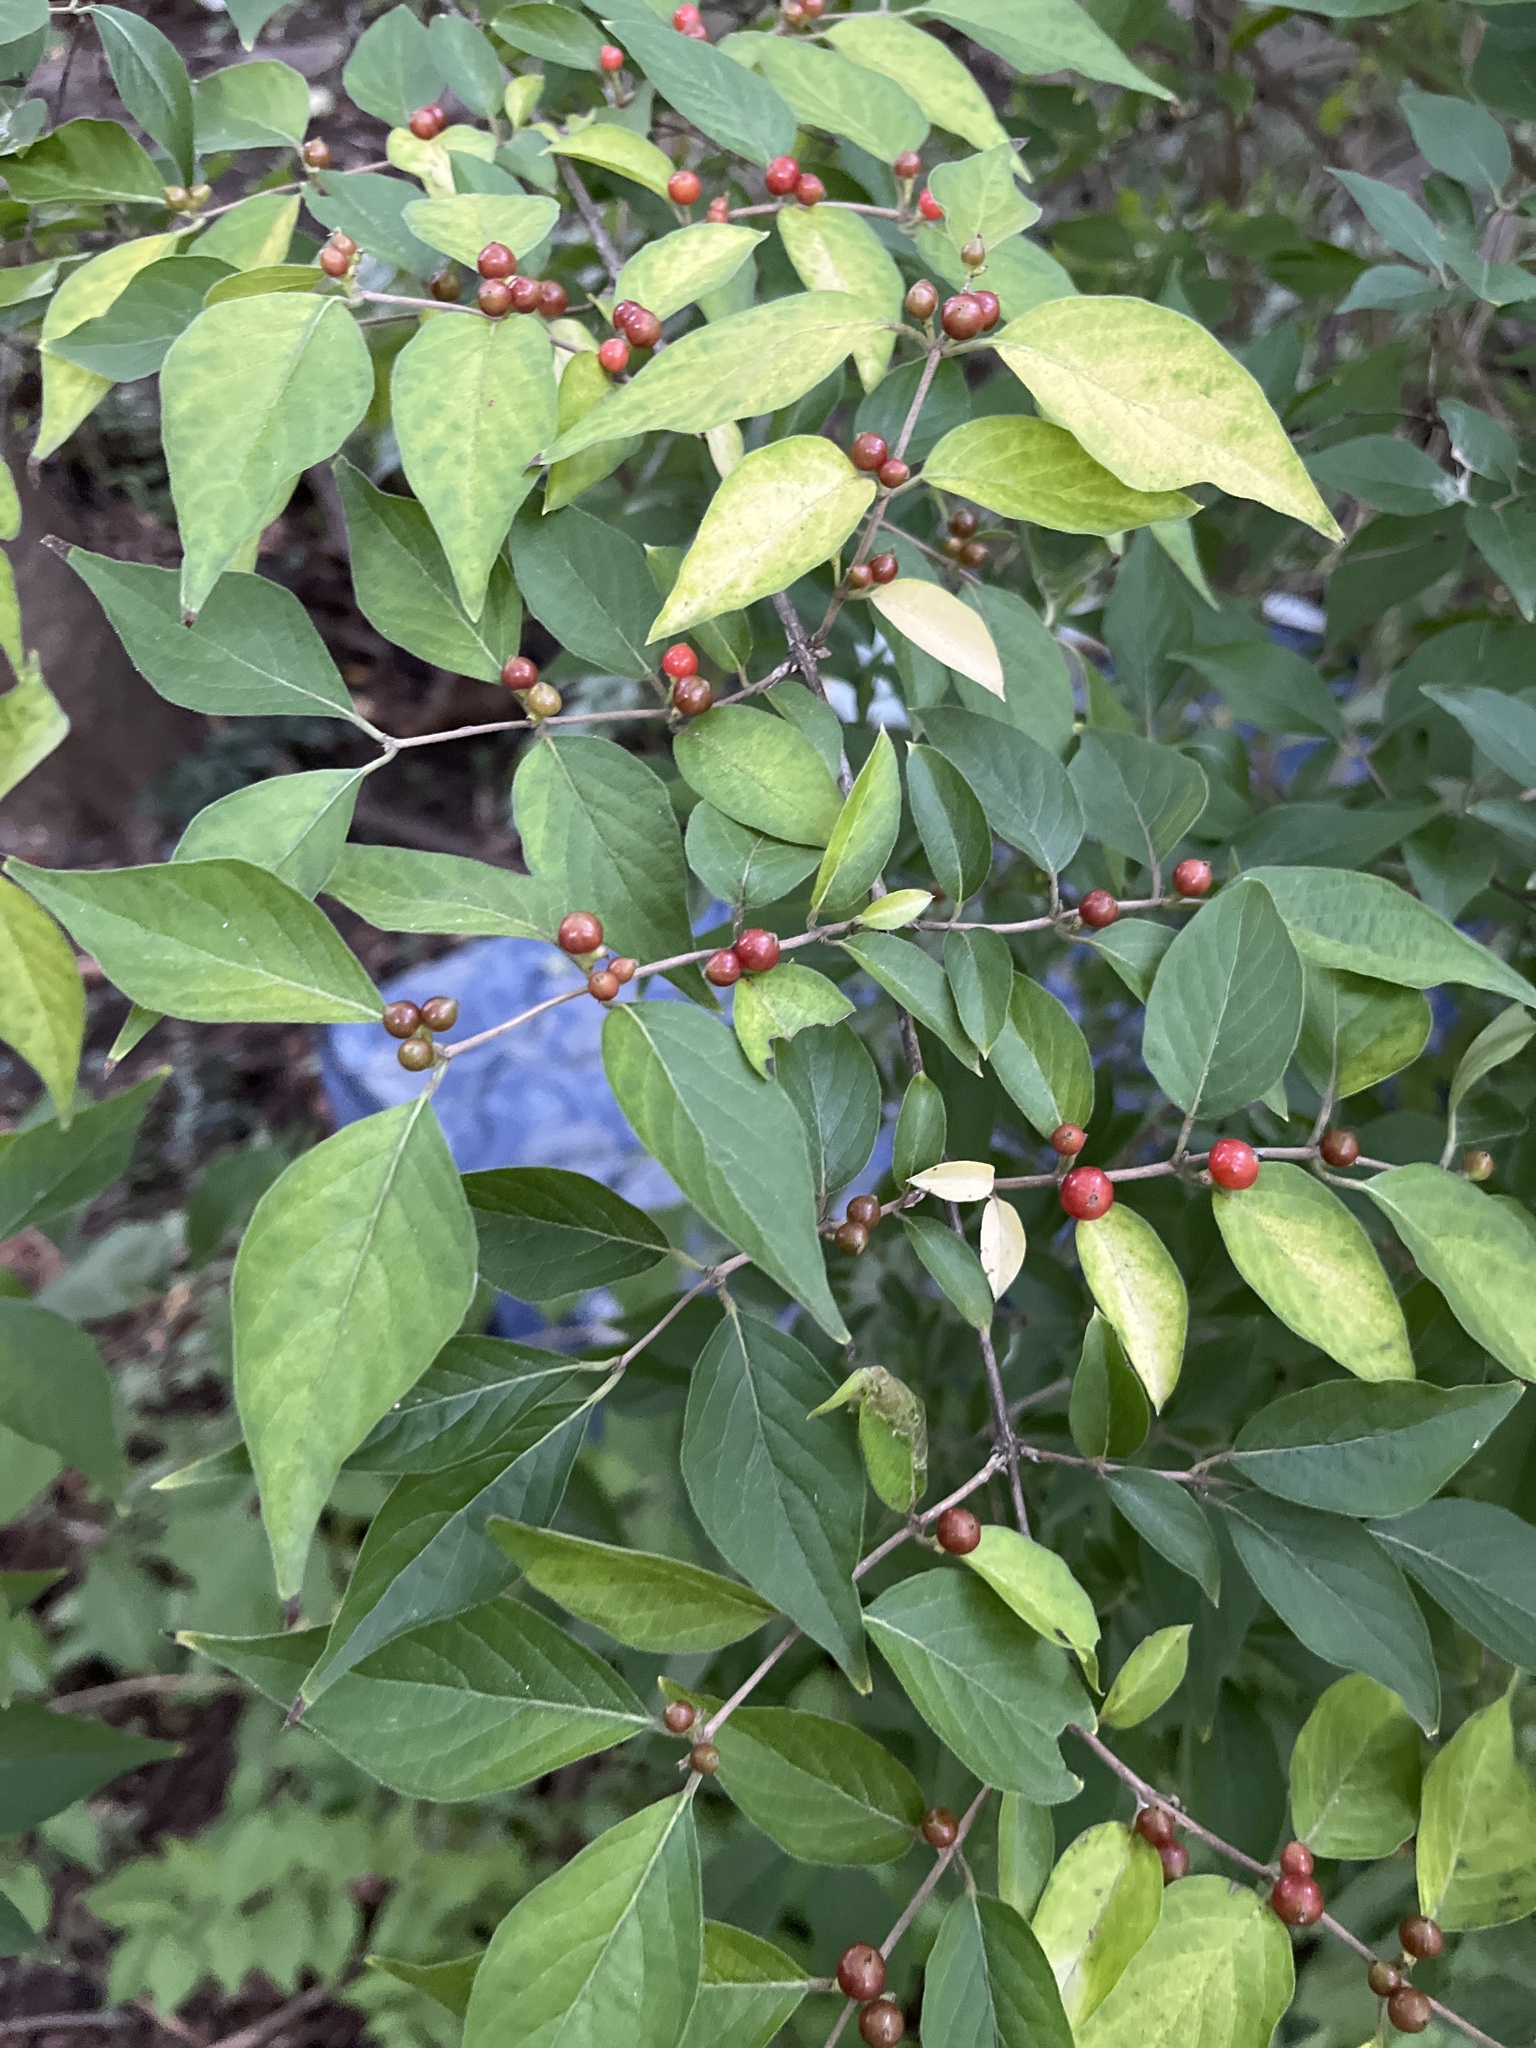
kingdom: Plantae
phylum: Tracheophyta
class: Magnoliopsida
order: Dipsacales
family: Caprifoliaceae
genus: Lonicera
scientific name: Lonicera maackii
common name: Amur honeysuckle
